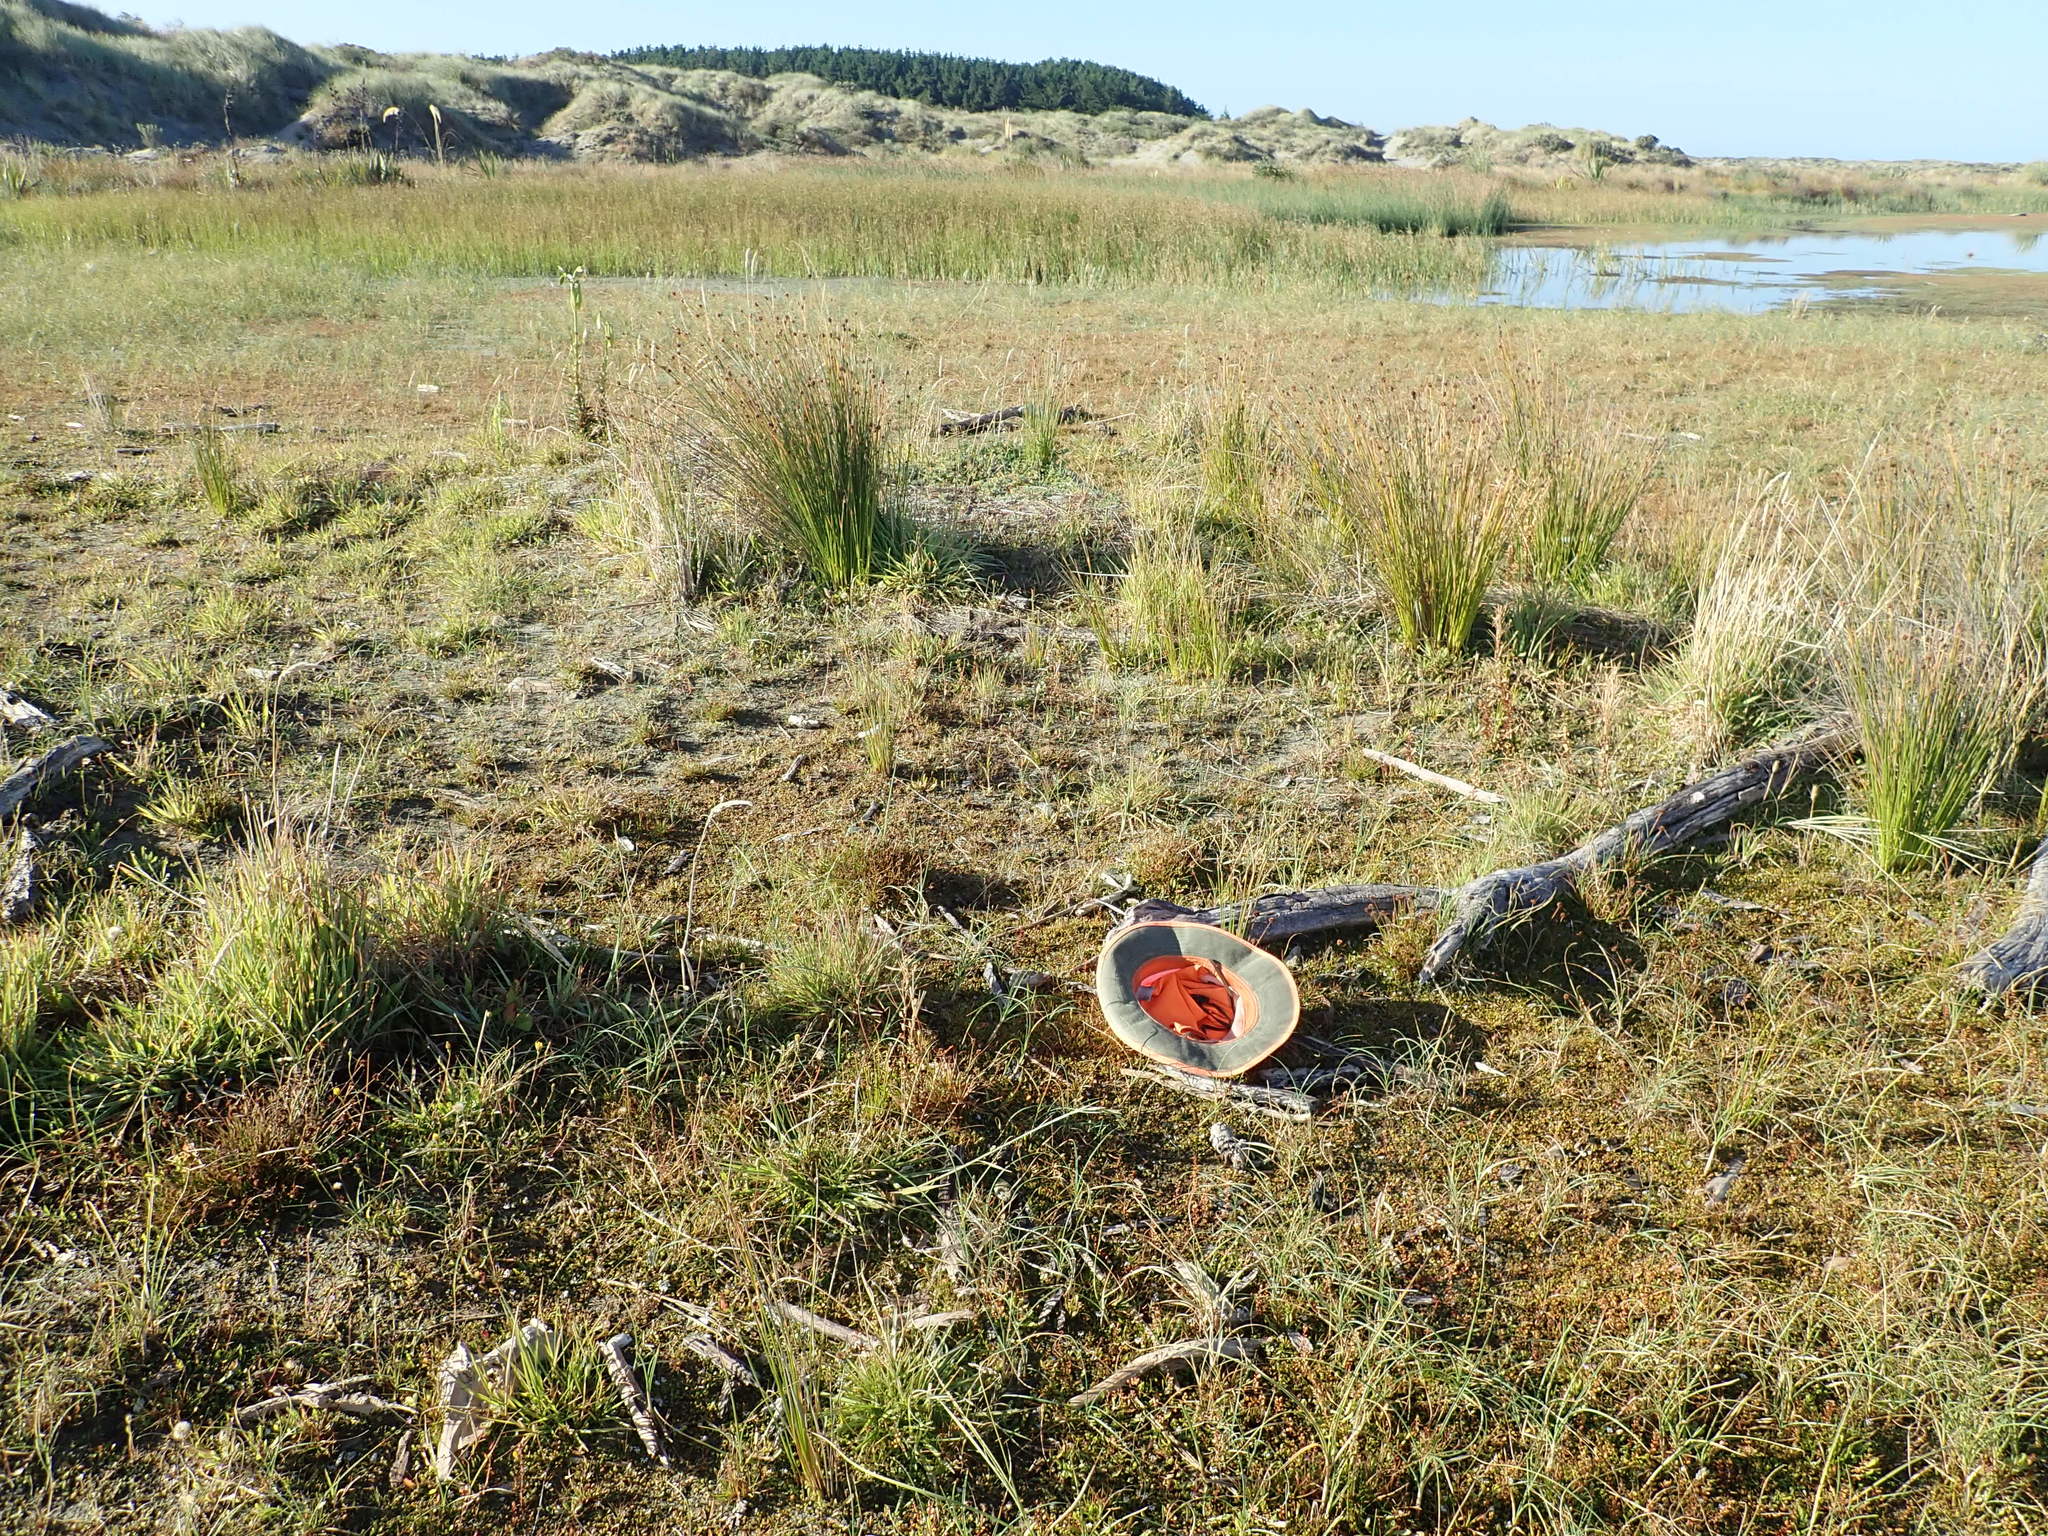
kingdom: Plantae
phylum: Tracheophyta
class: Magnoliopsida
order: Asterales
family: Goodeniaceae
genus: Goodenia
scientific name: Goodenia radicans
